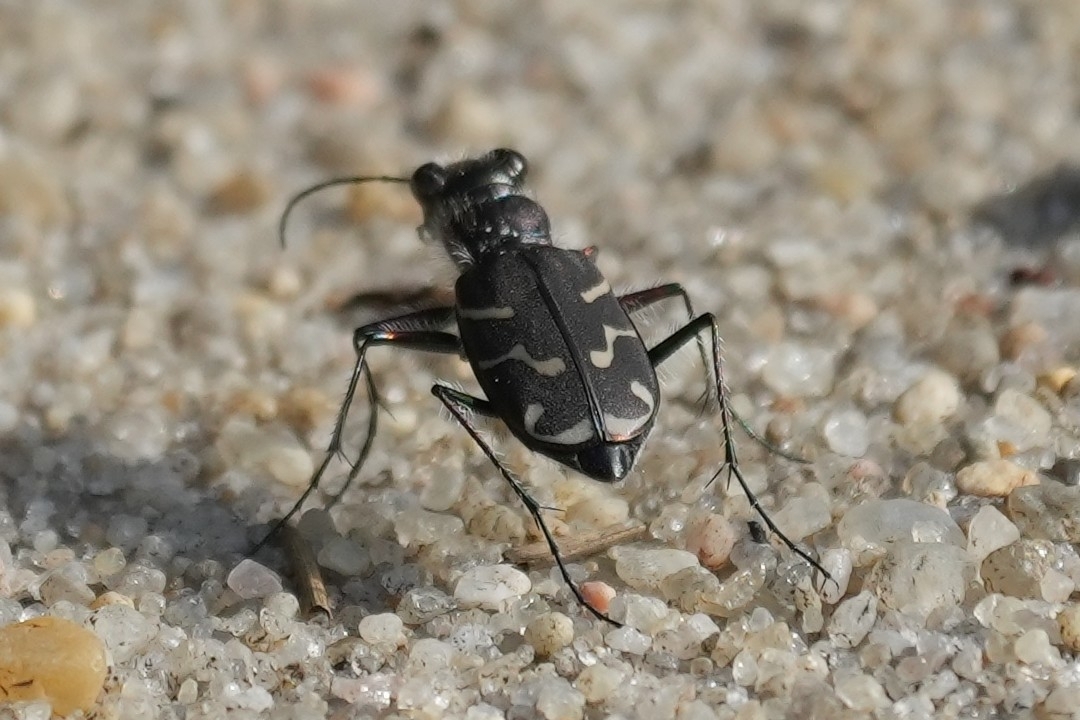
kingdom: Animalia
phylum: Arthropoda
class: Insecta
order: Coleoptera
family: Carabidae
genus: Cicindela
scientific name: Cicindela tranquebarica
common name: Oblique-lined tiger beetle
